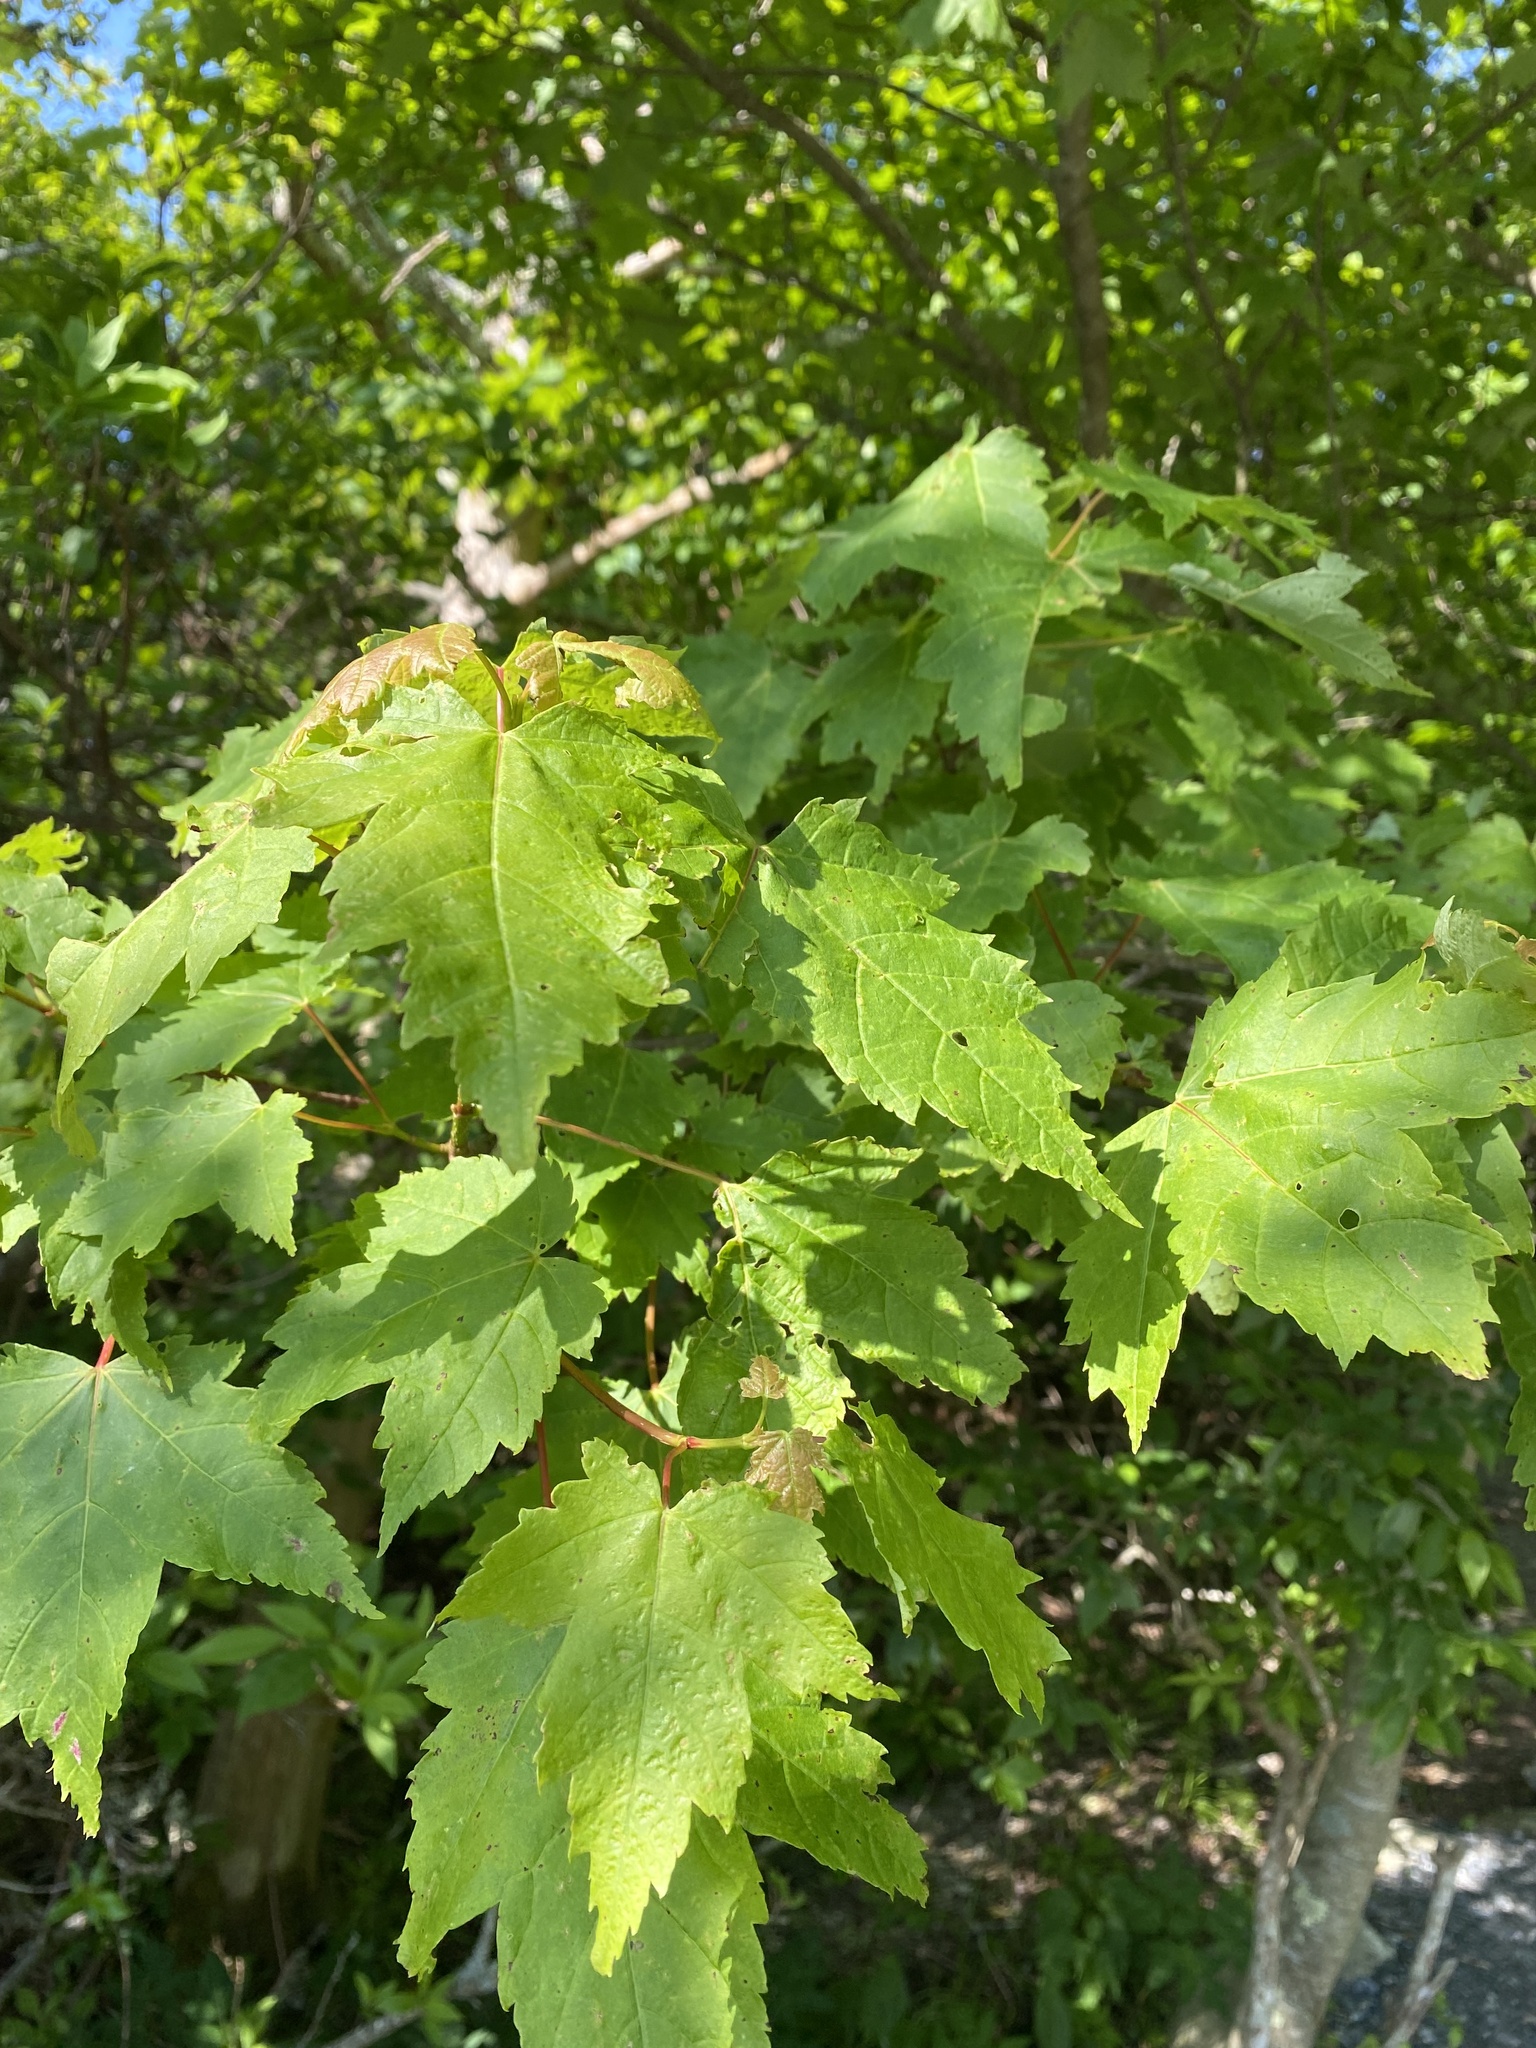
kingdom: Plantae
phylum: Tracheophyta
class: Magnoliopsida
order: Sapindales
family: Sapindaceae
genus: Acer
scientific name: Acer rubrum
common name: Red maple
